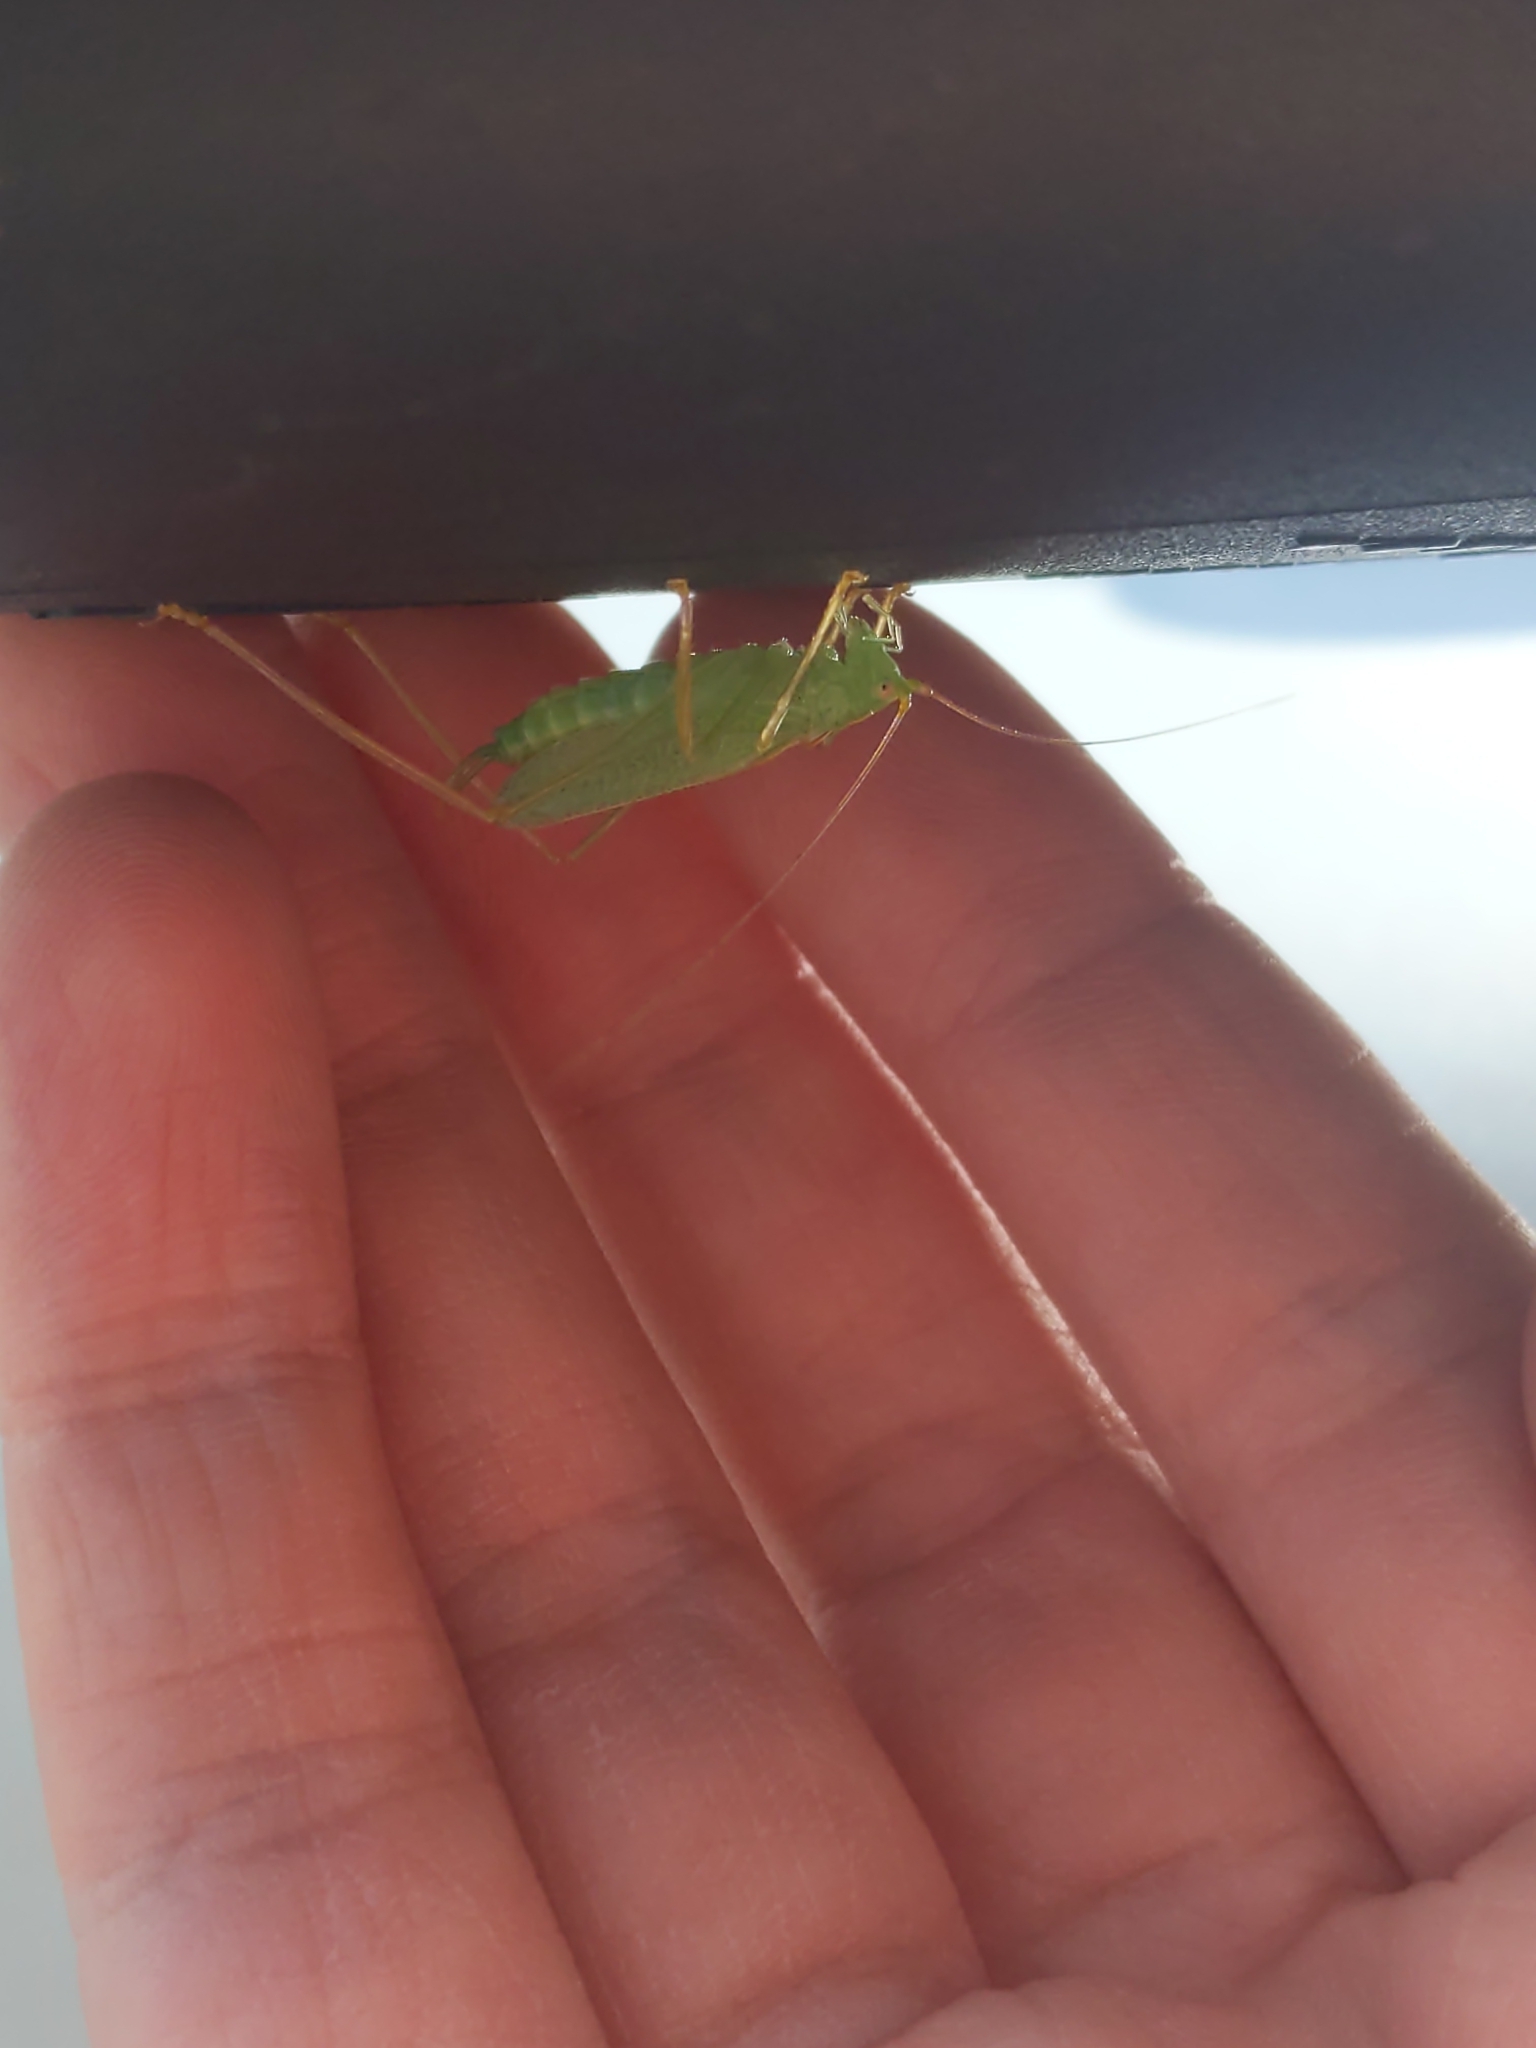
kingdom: Animalia
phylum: Arthropoda
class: Insecta
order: Orthoptera
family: Tettigoniidae
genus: Meconema
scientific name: Meconema thalassinum
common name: Oak bush-cricket
